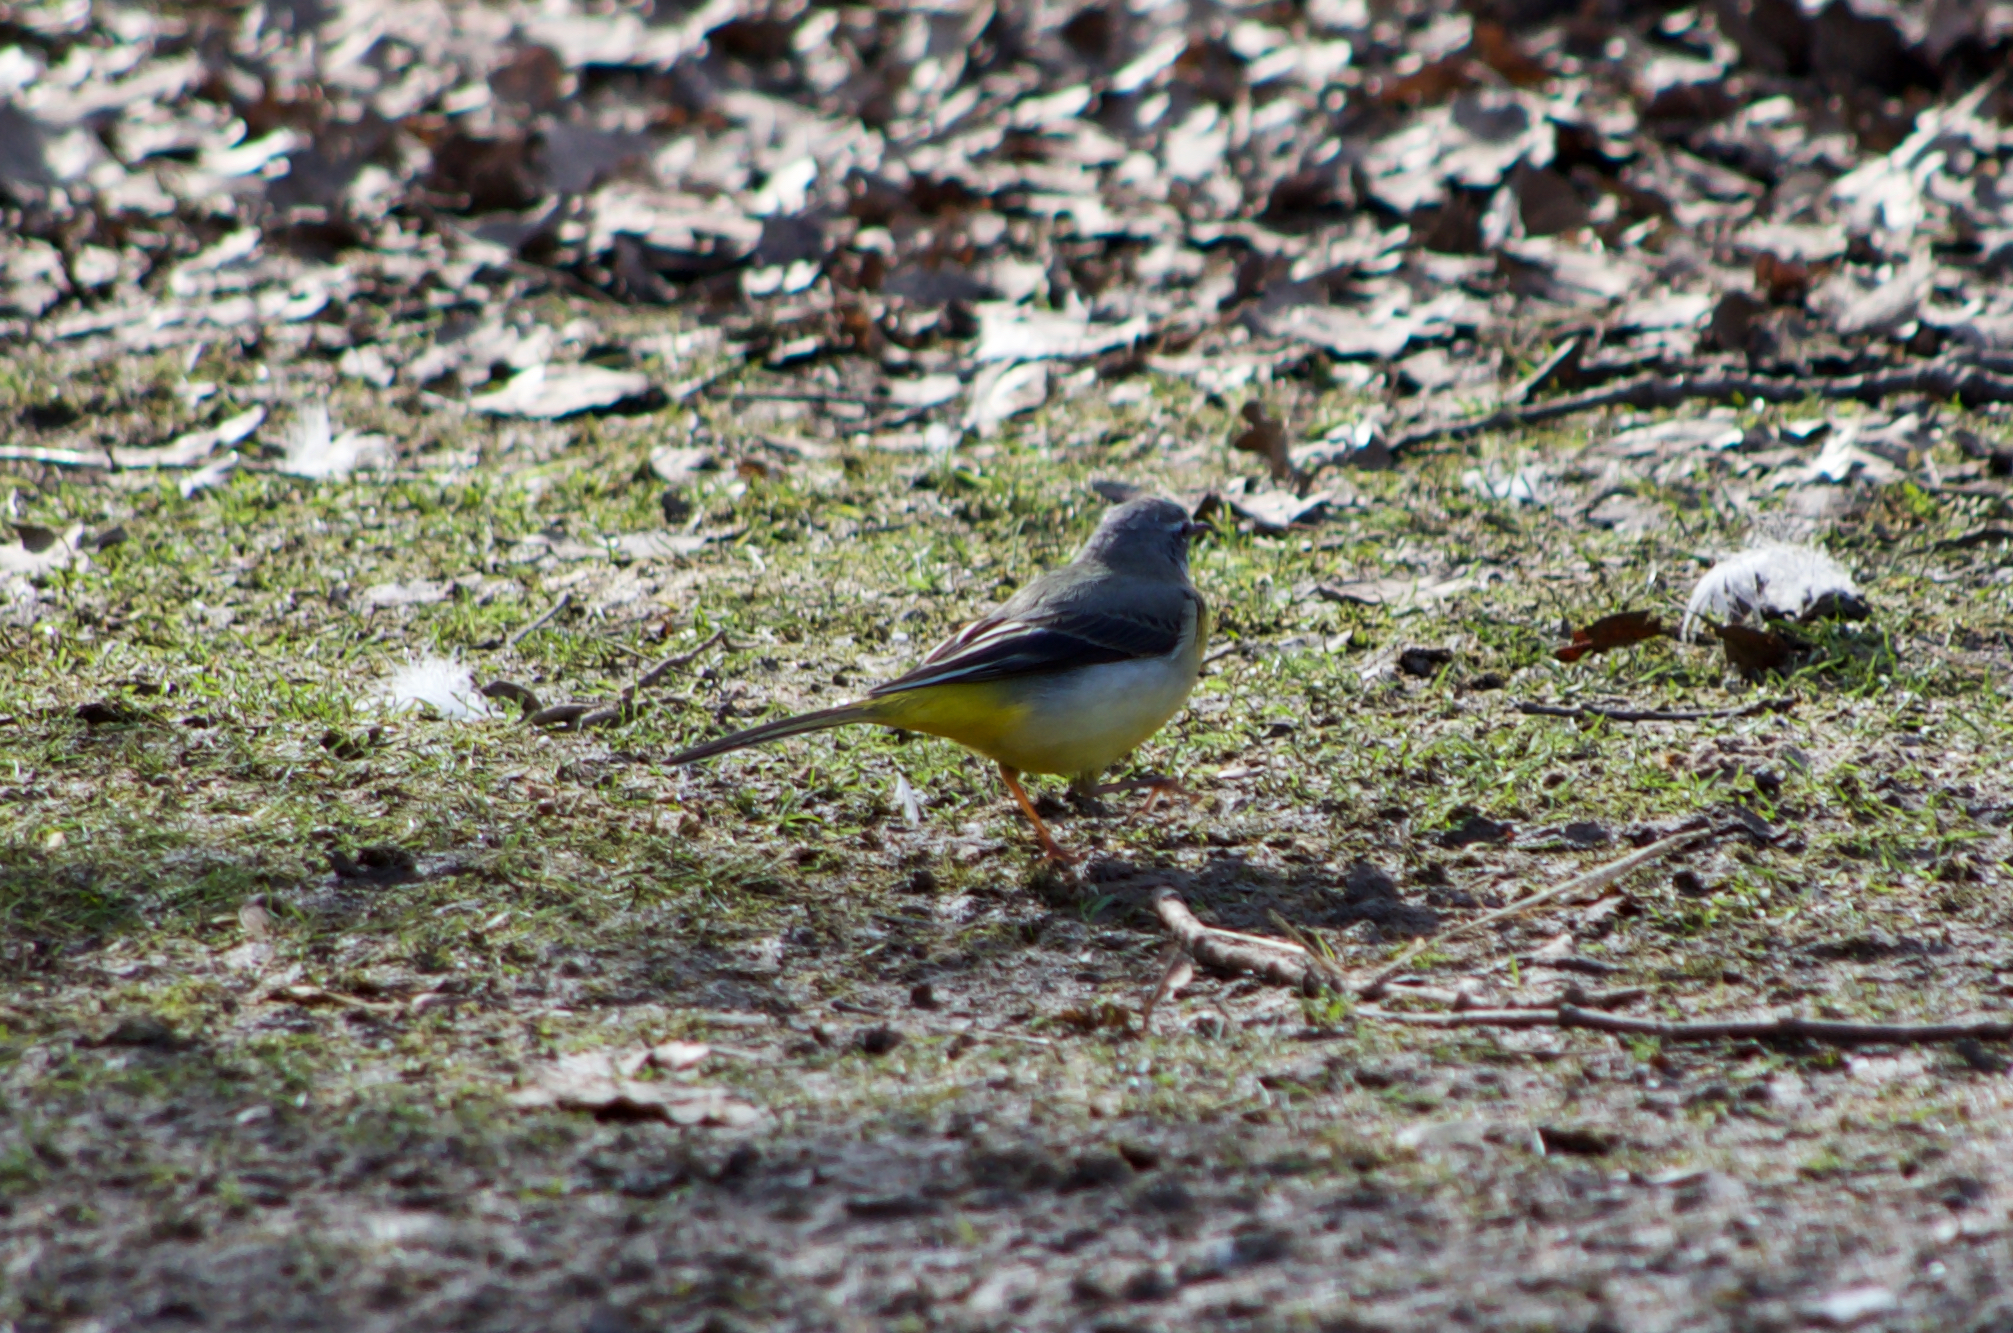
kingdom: Animalia
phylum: Chordata
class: Aves
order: Passeriformes
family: Motacillidae
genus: Motacilla
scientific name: Motacilla cinerea
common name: Grey wagtail
